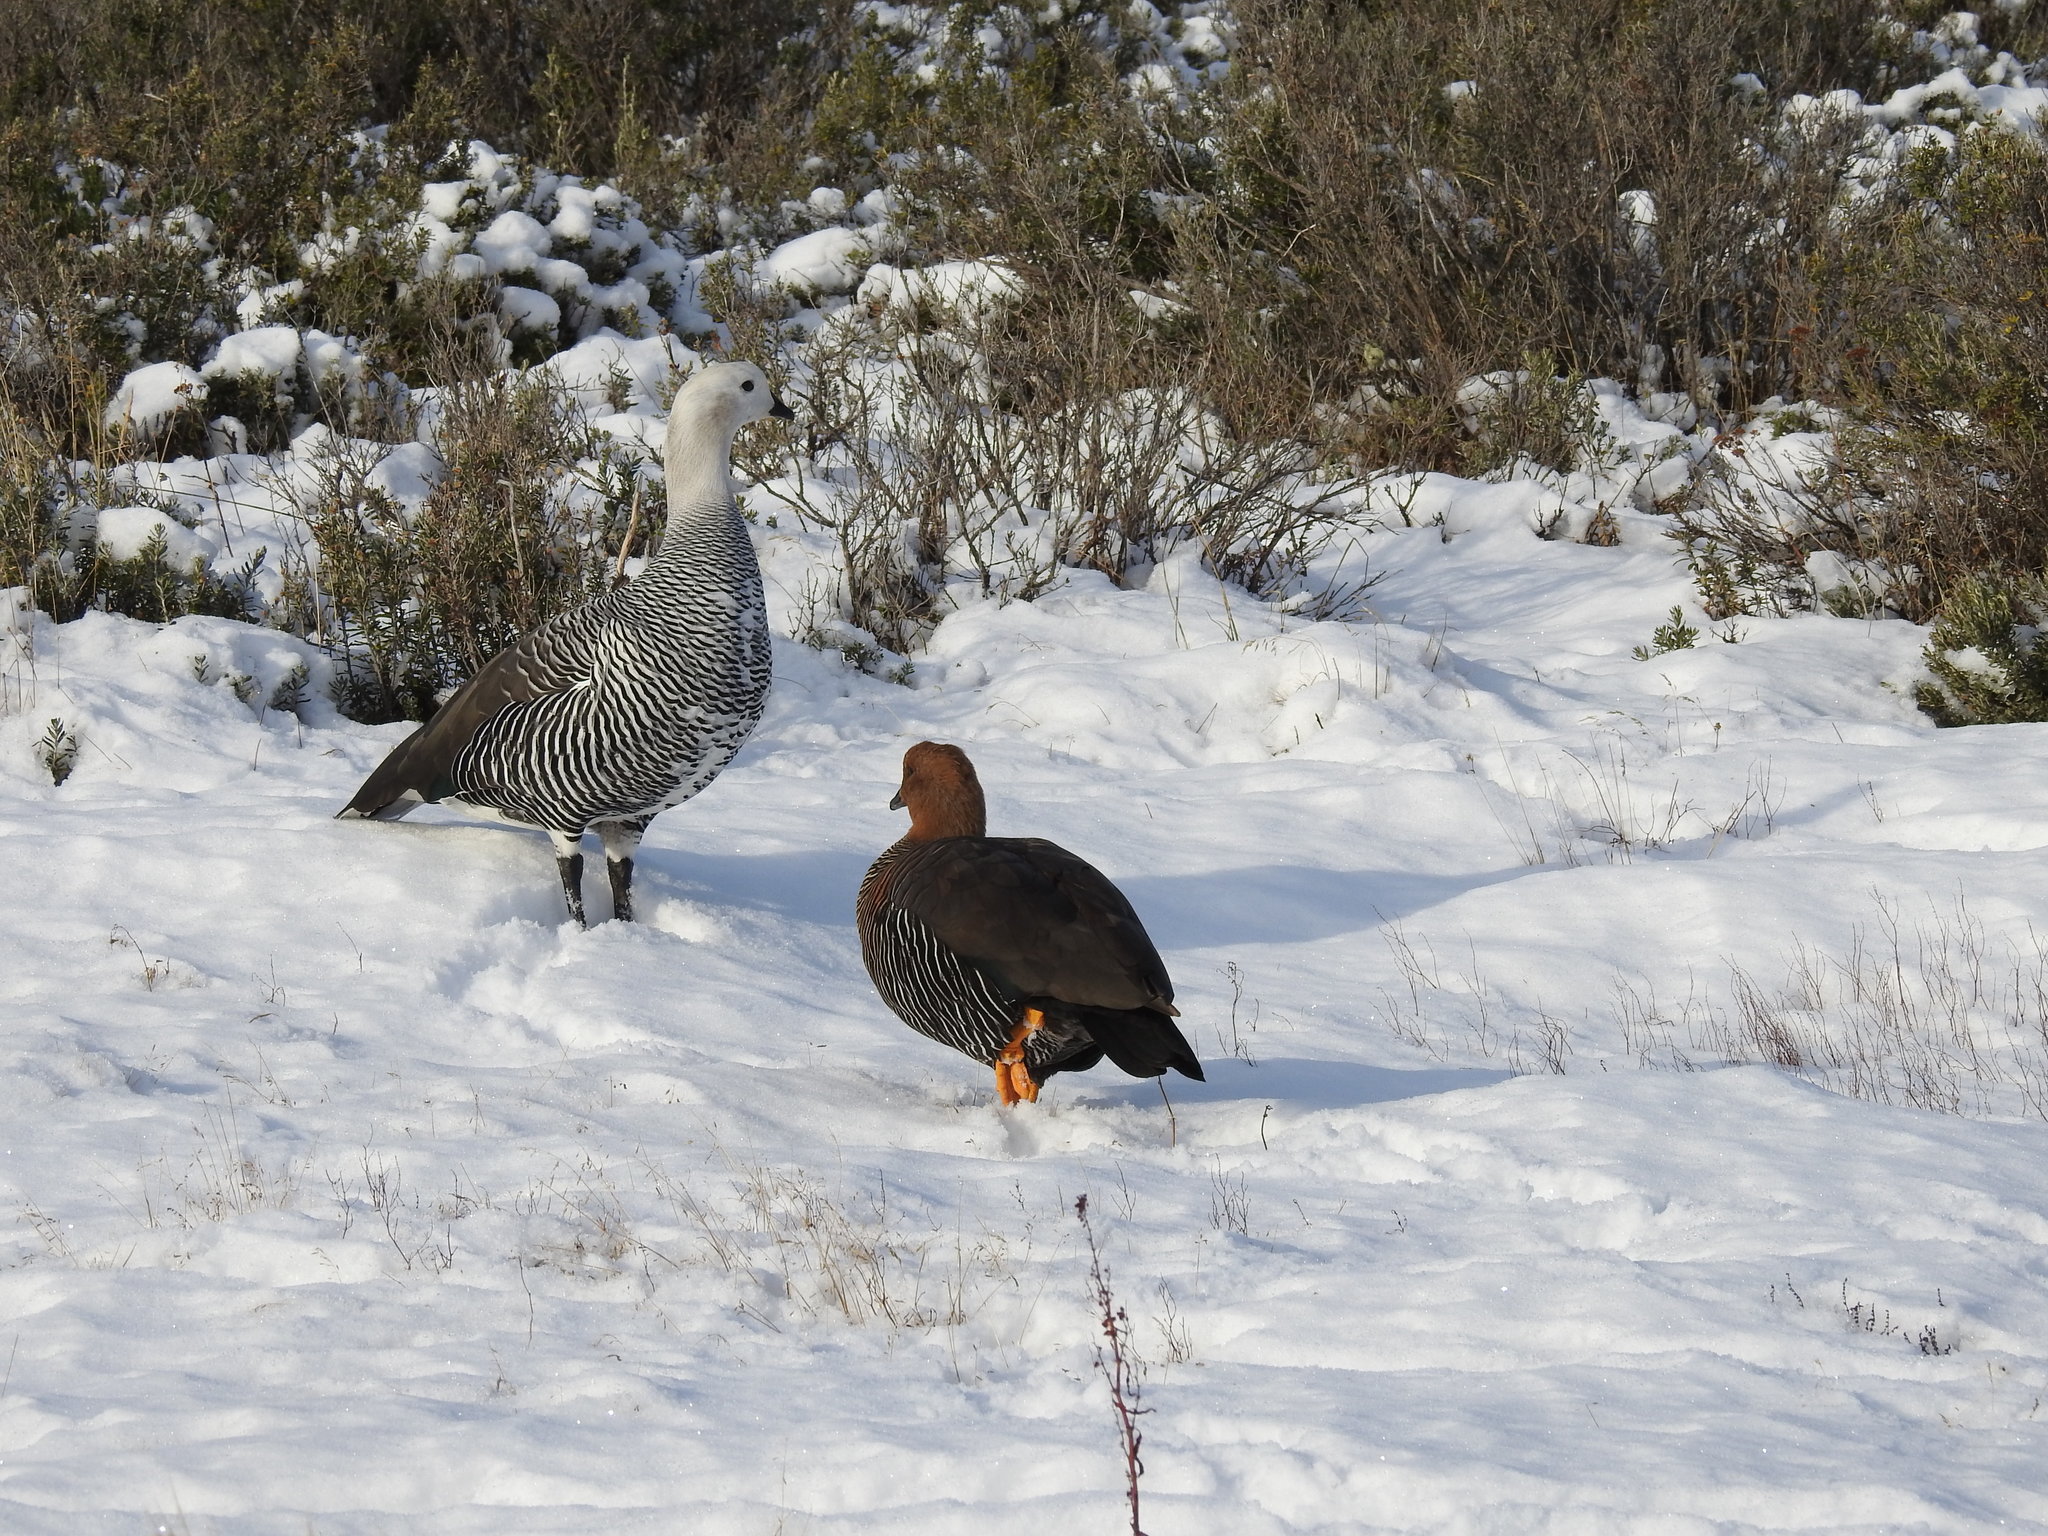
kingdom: Animalia
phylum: Chordata
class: Aves
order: Anseriformes
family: Anatidae
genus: Chloephaga
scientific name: Chloephaga picta
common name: Upland goose
